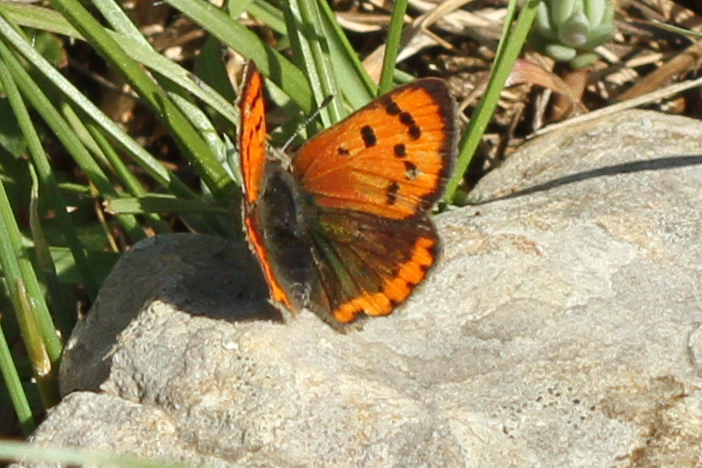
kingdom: Animalia
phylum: Arthropoda
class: Insecta
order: Lepidoptera
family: Lycaenidae
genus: Lycaena
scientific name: Lycaena phlaeas
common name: Small copper
